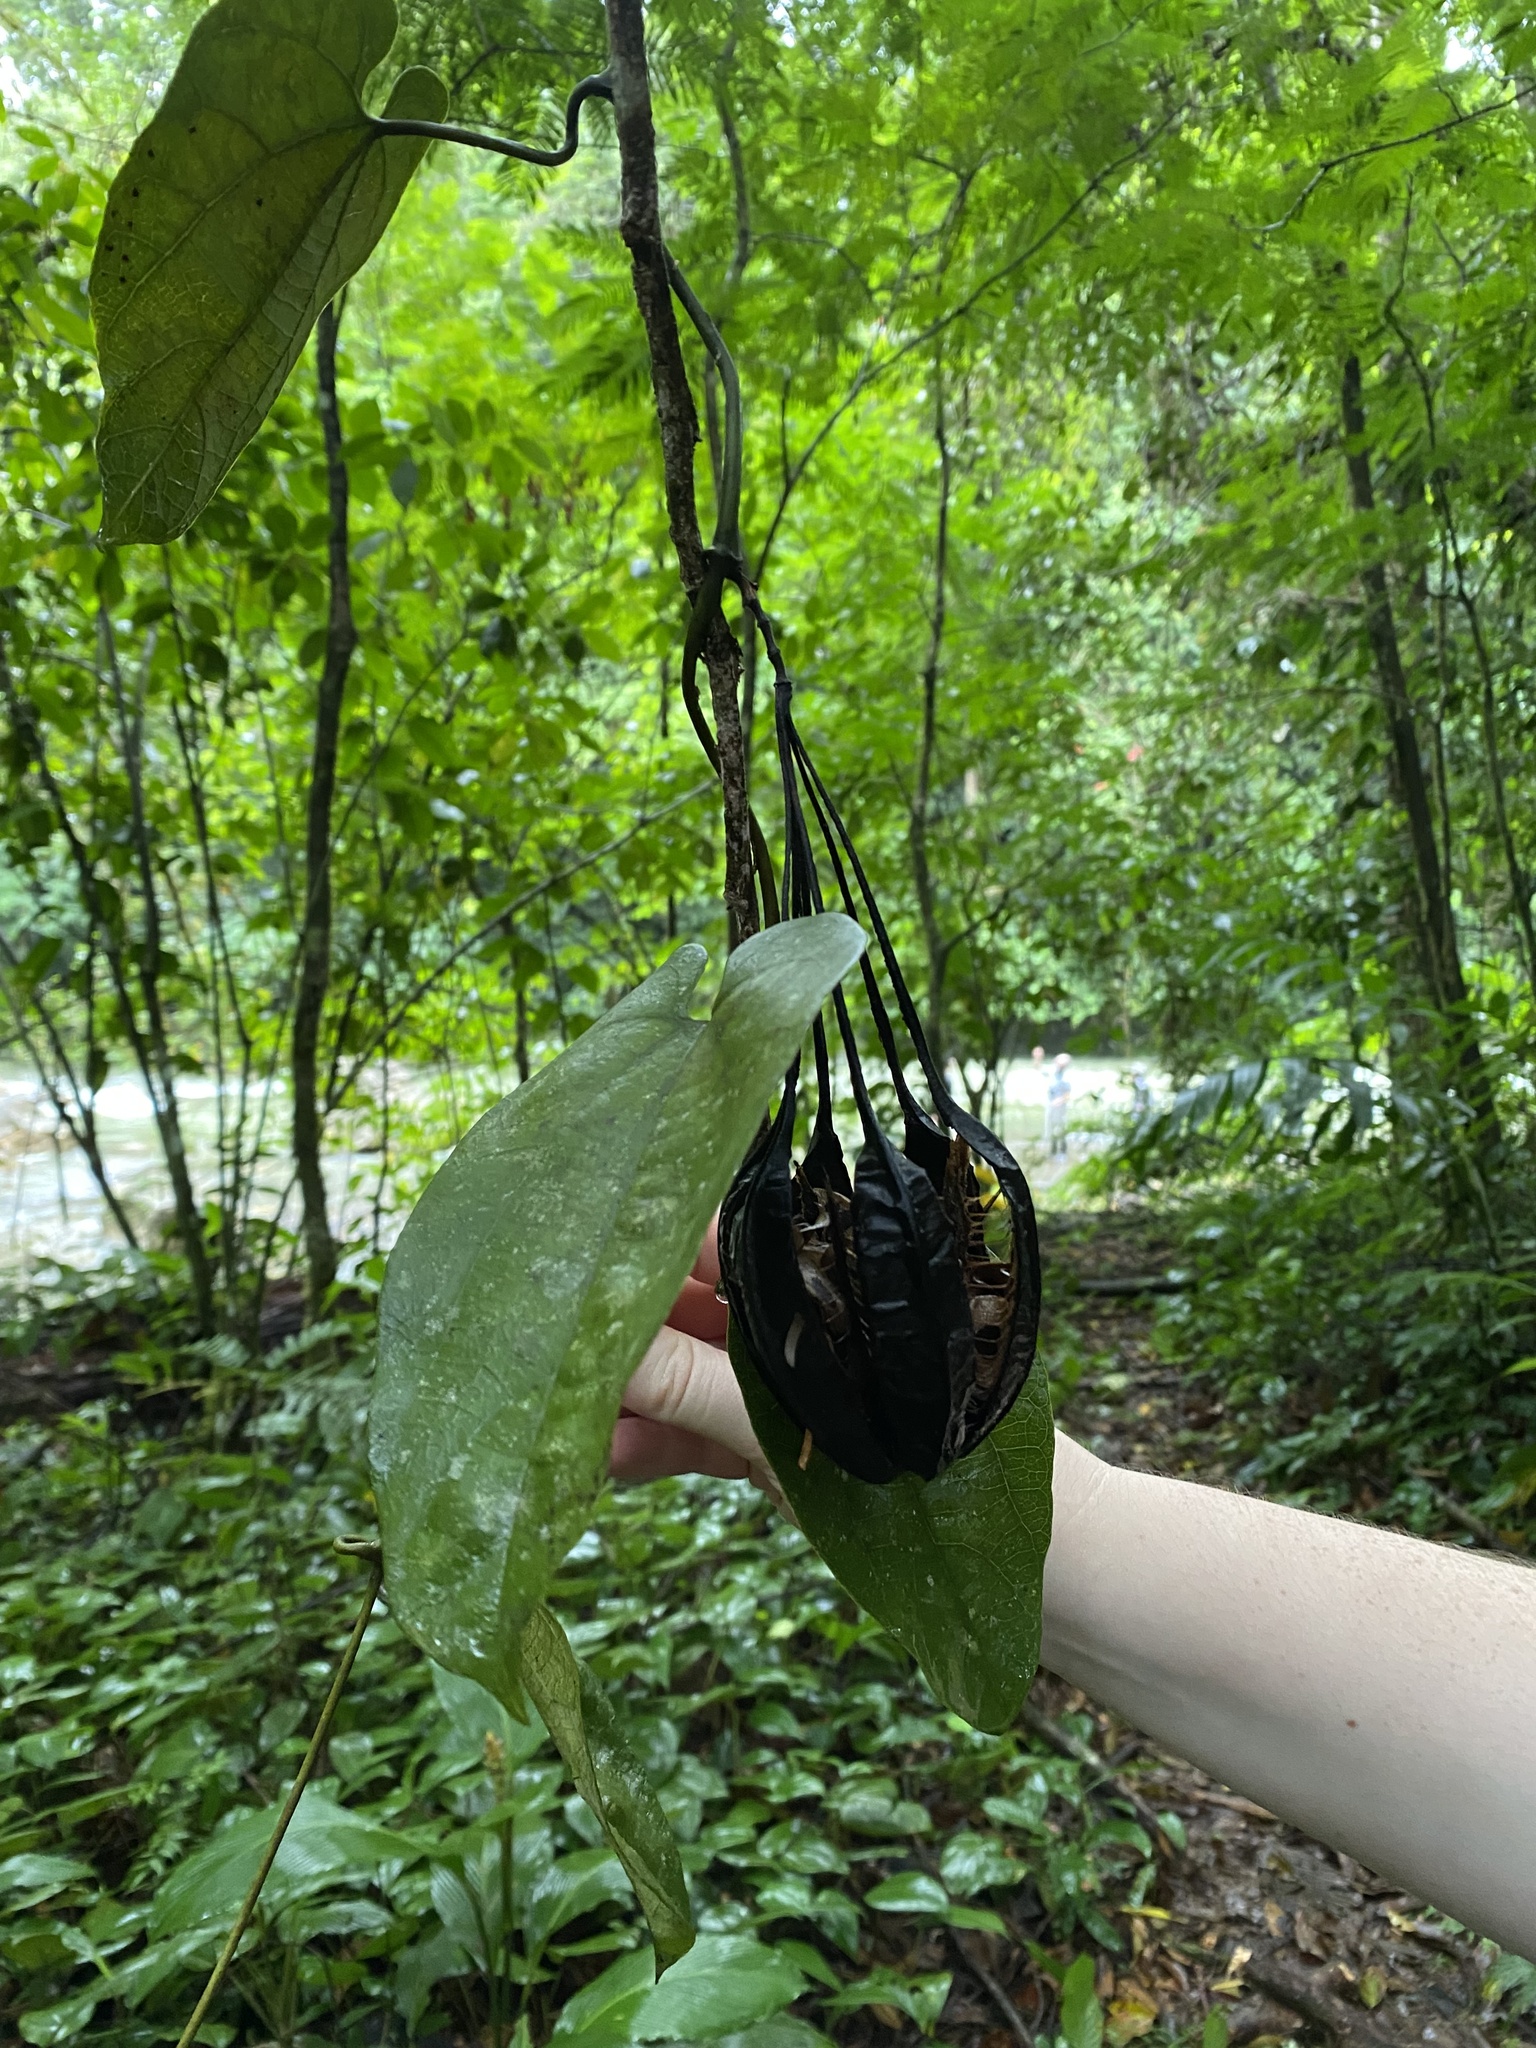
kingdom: Plantae
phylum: Tracheophyta
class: Magnoliopsida
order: Piperales
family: Aristolochiaceae
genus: Aristolochia
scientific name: Aristolochia constricta
